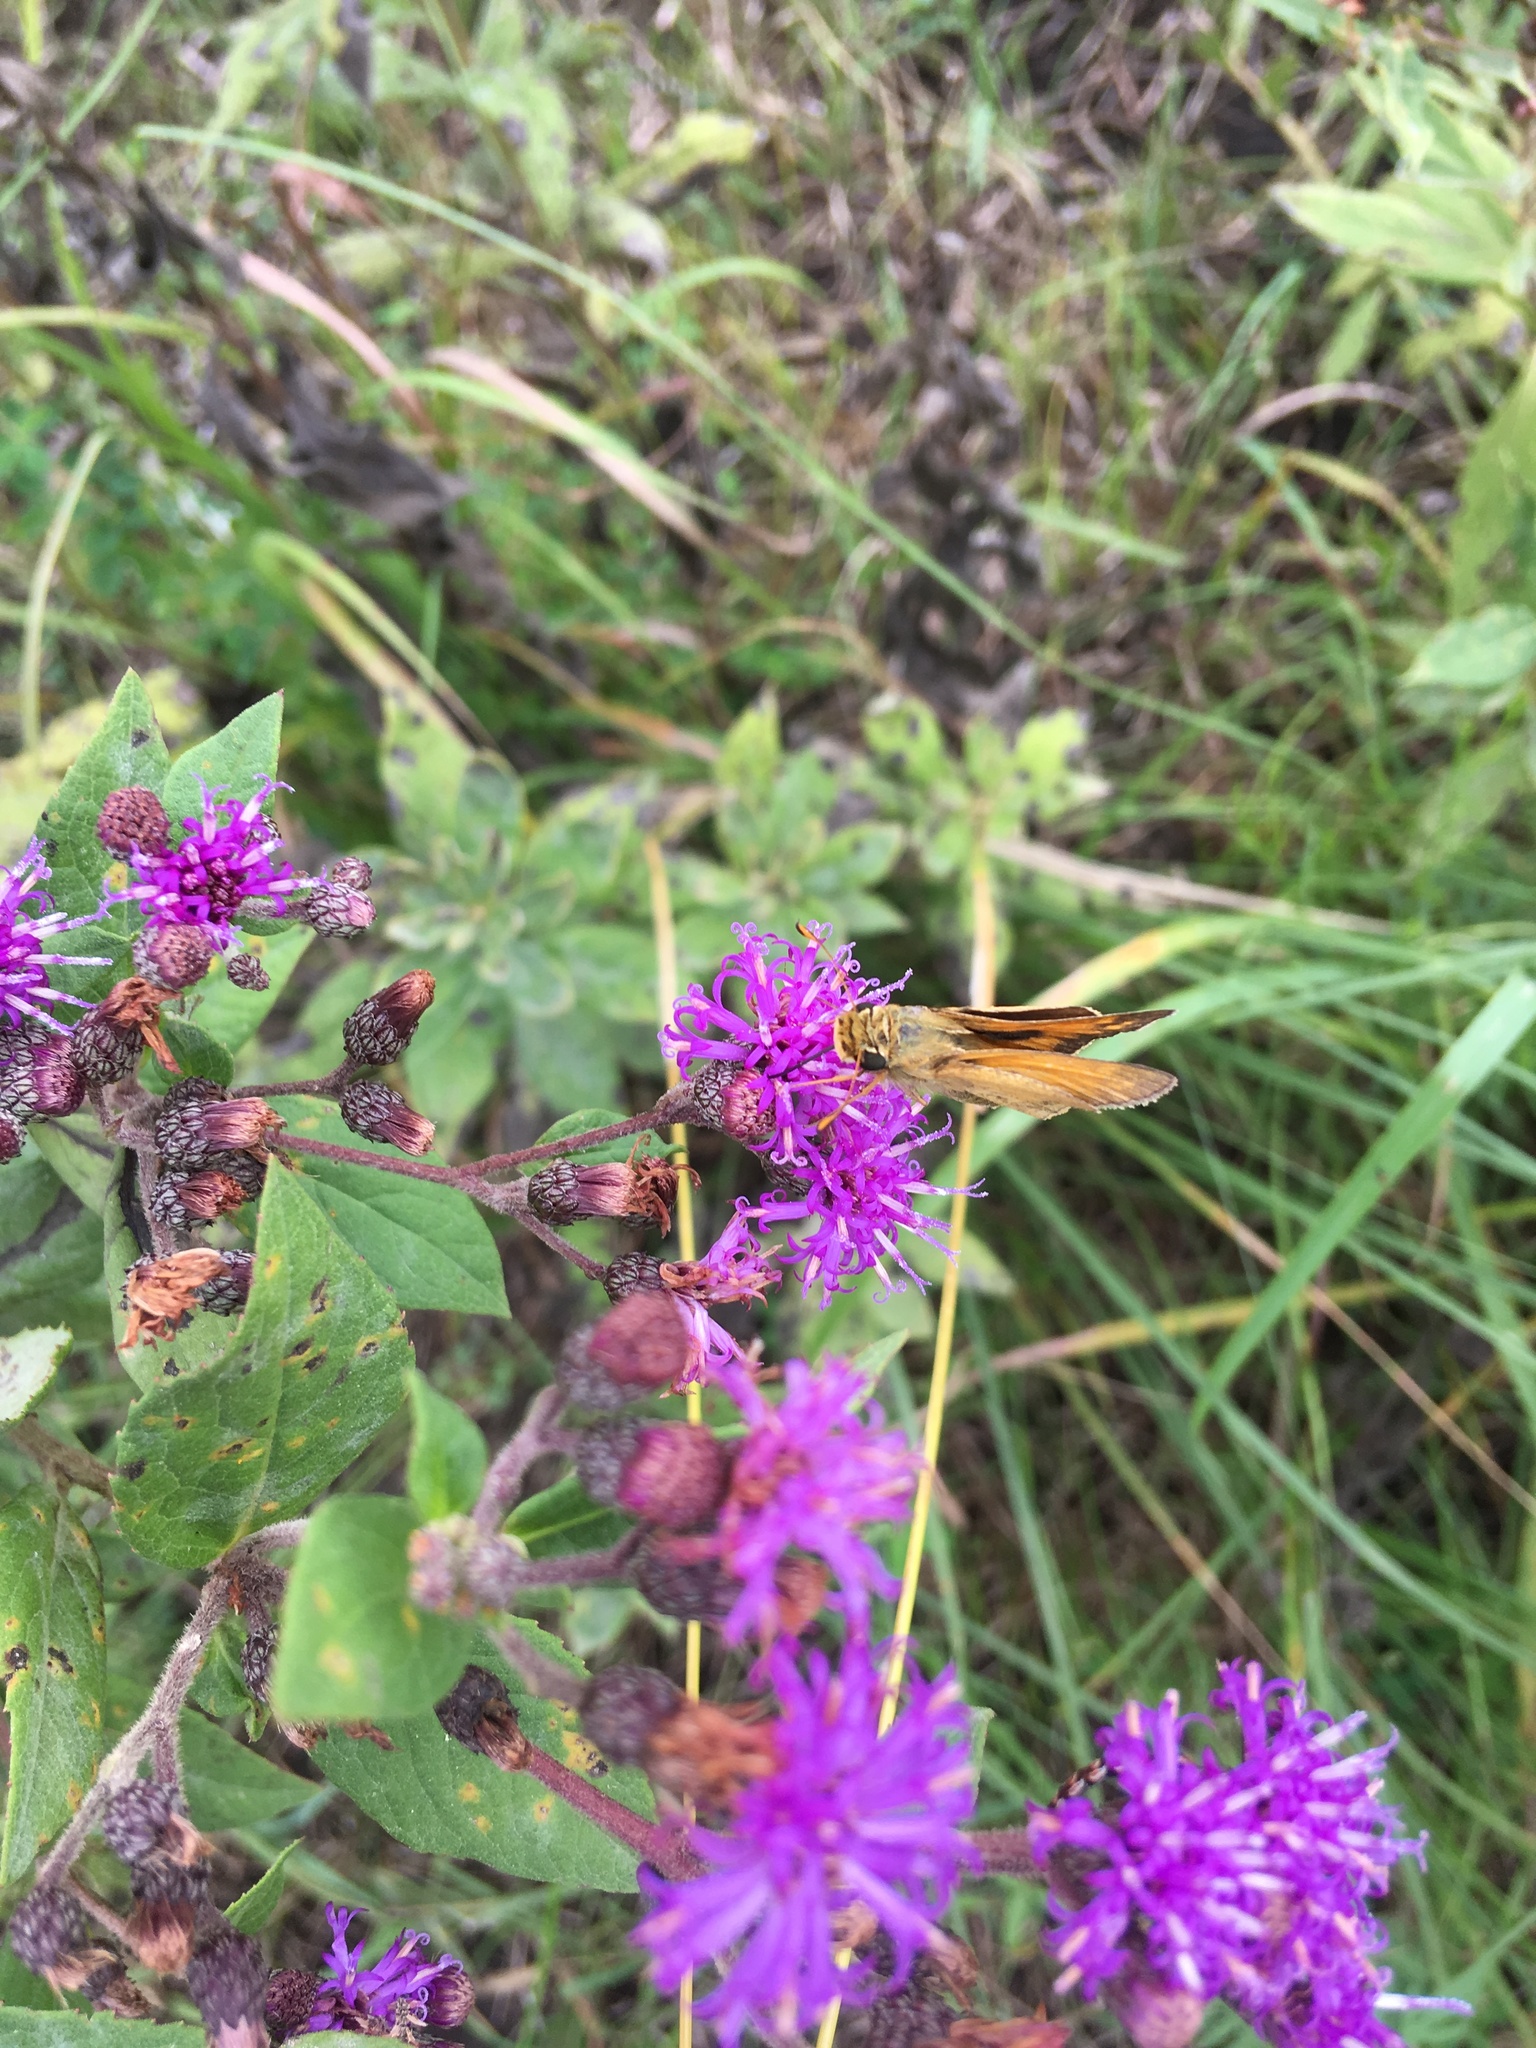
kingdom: Animalia
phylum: Arthropoda
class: Insecta
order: Lepidoptera
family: Hesperiidae
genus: Atalopedes
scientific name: Atalopedes
